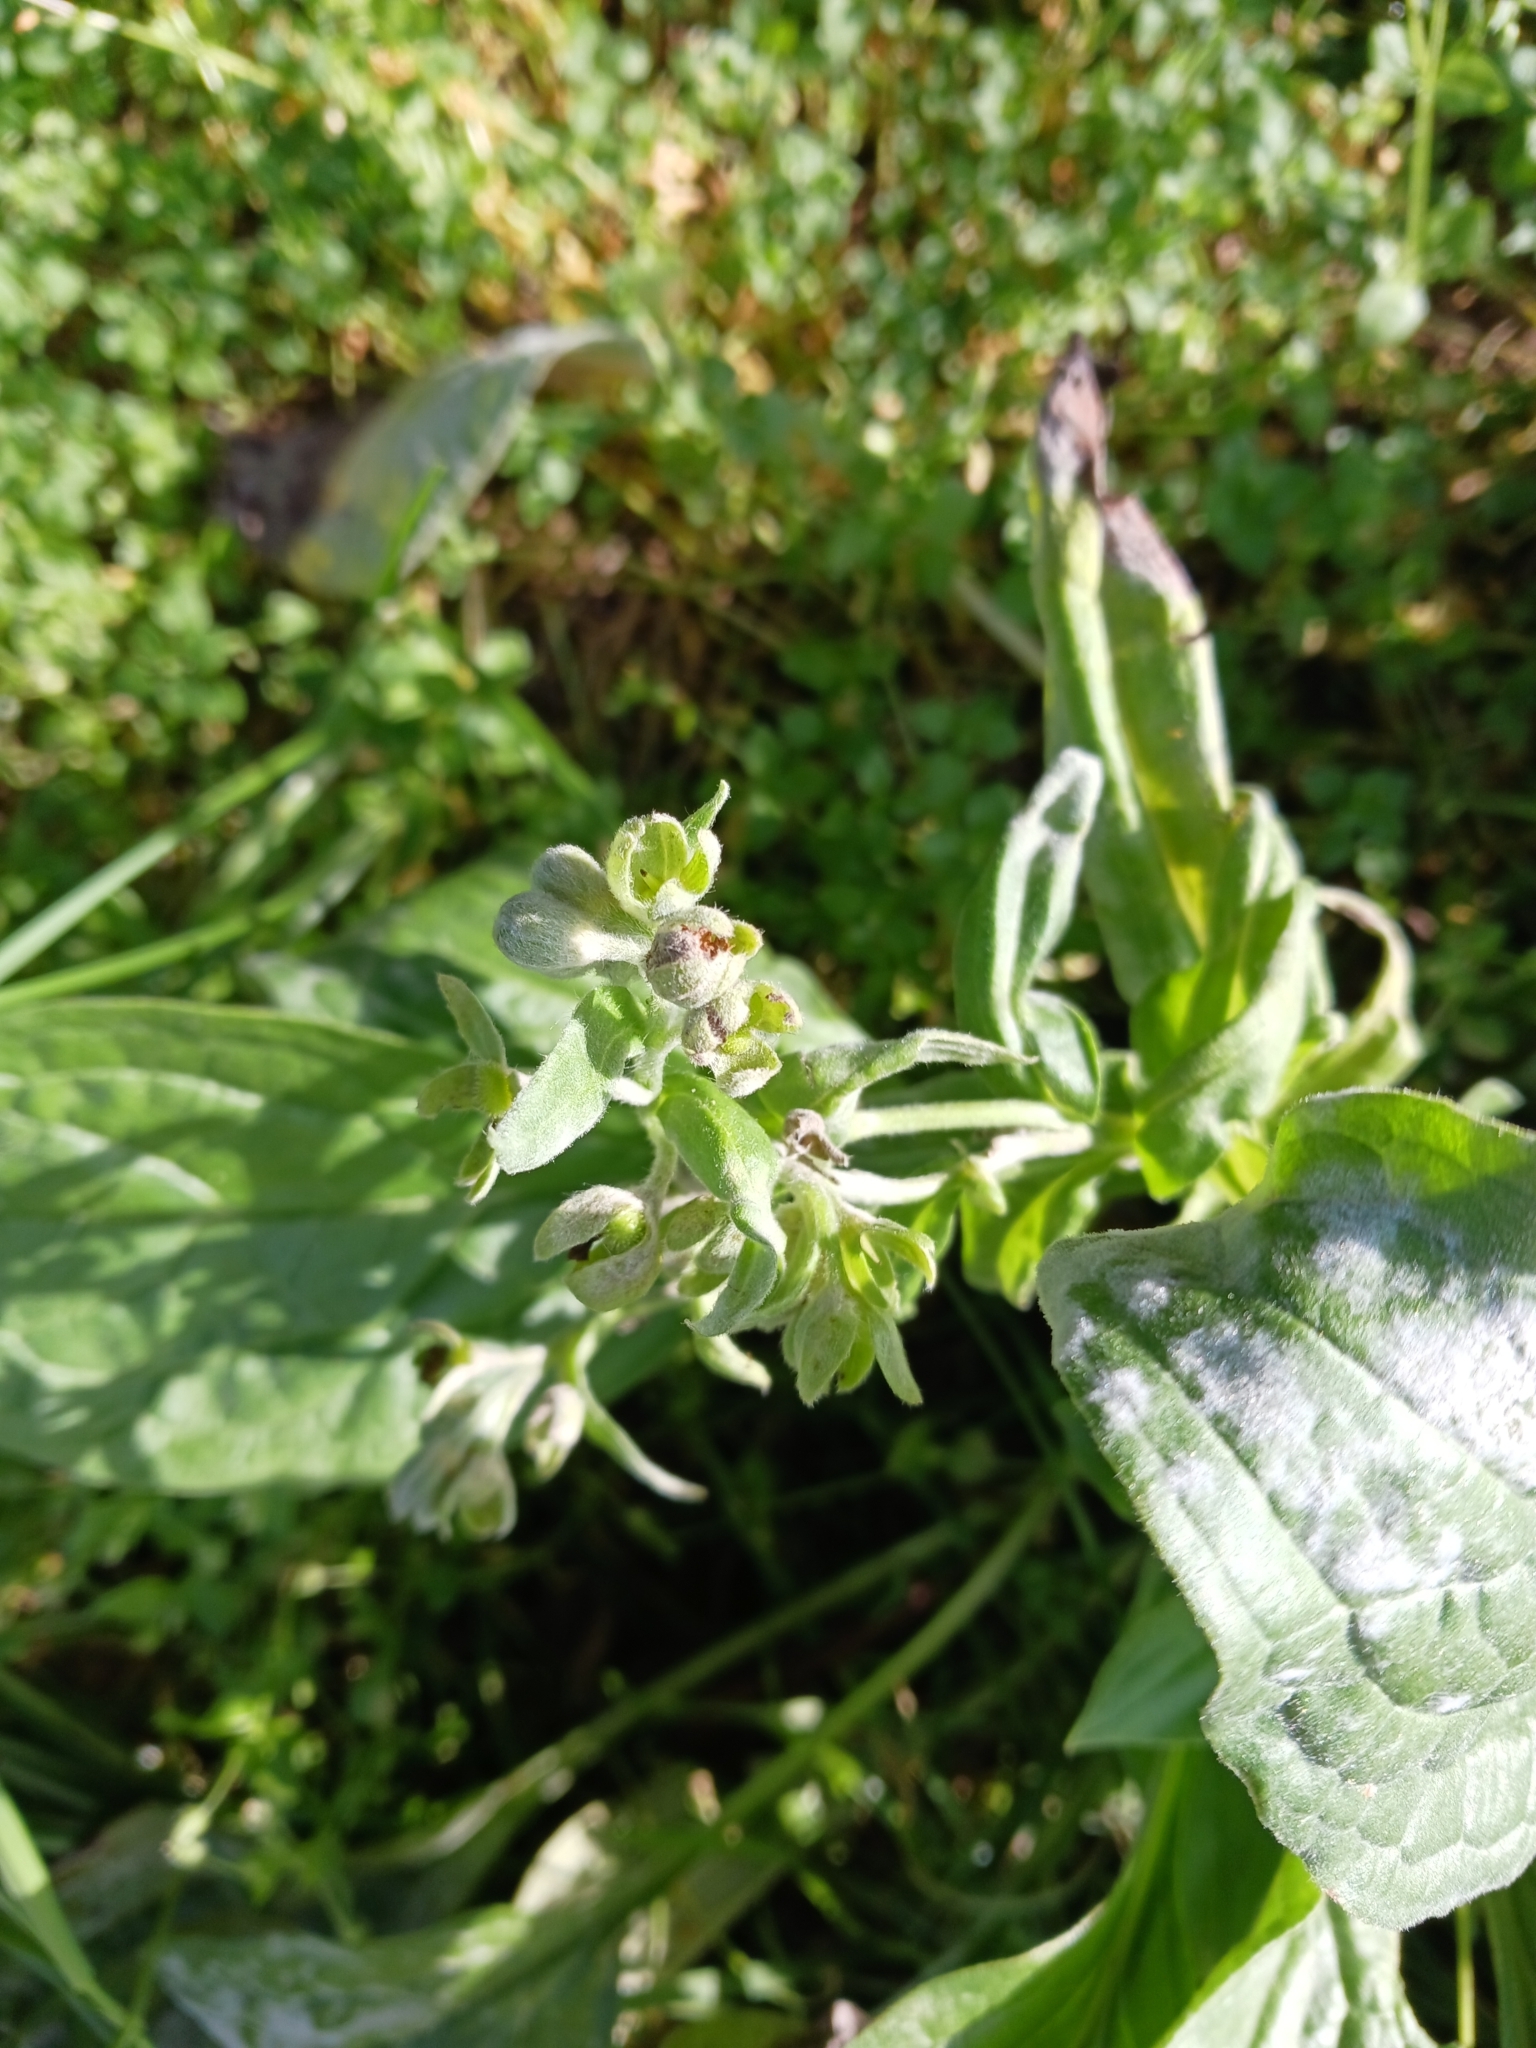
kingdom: Fungi
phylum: Ascomycota
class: Leotiomycetes
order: Helotiales
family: Erysiphaceae
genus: Golovinomyces
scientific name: Golovinomyces asperifoliorum
